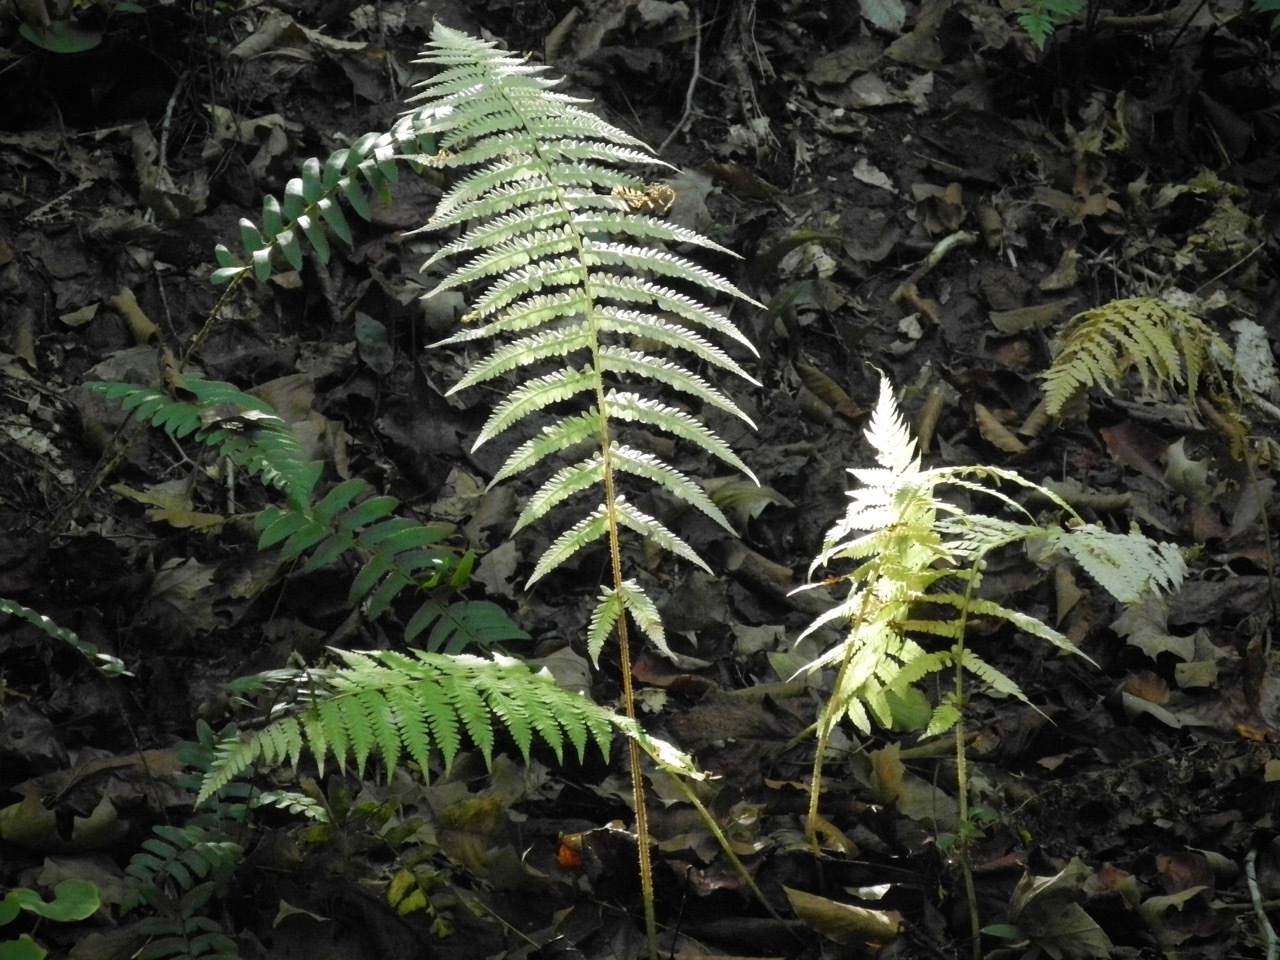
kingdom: Plantae
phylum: Tracheophyta
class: Polypodiopsida
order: Polypodiales
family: Athyriaceae
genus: Deparia
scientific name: Deparia acrostichoides
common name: Silver false spleenwort
